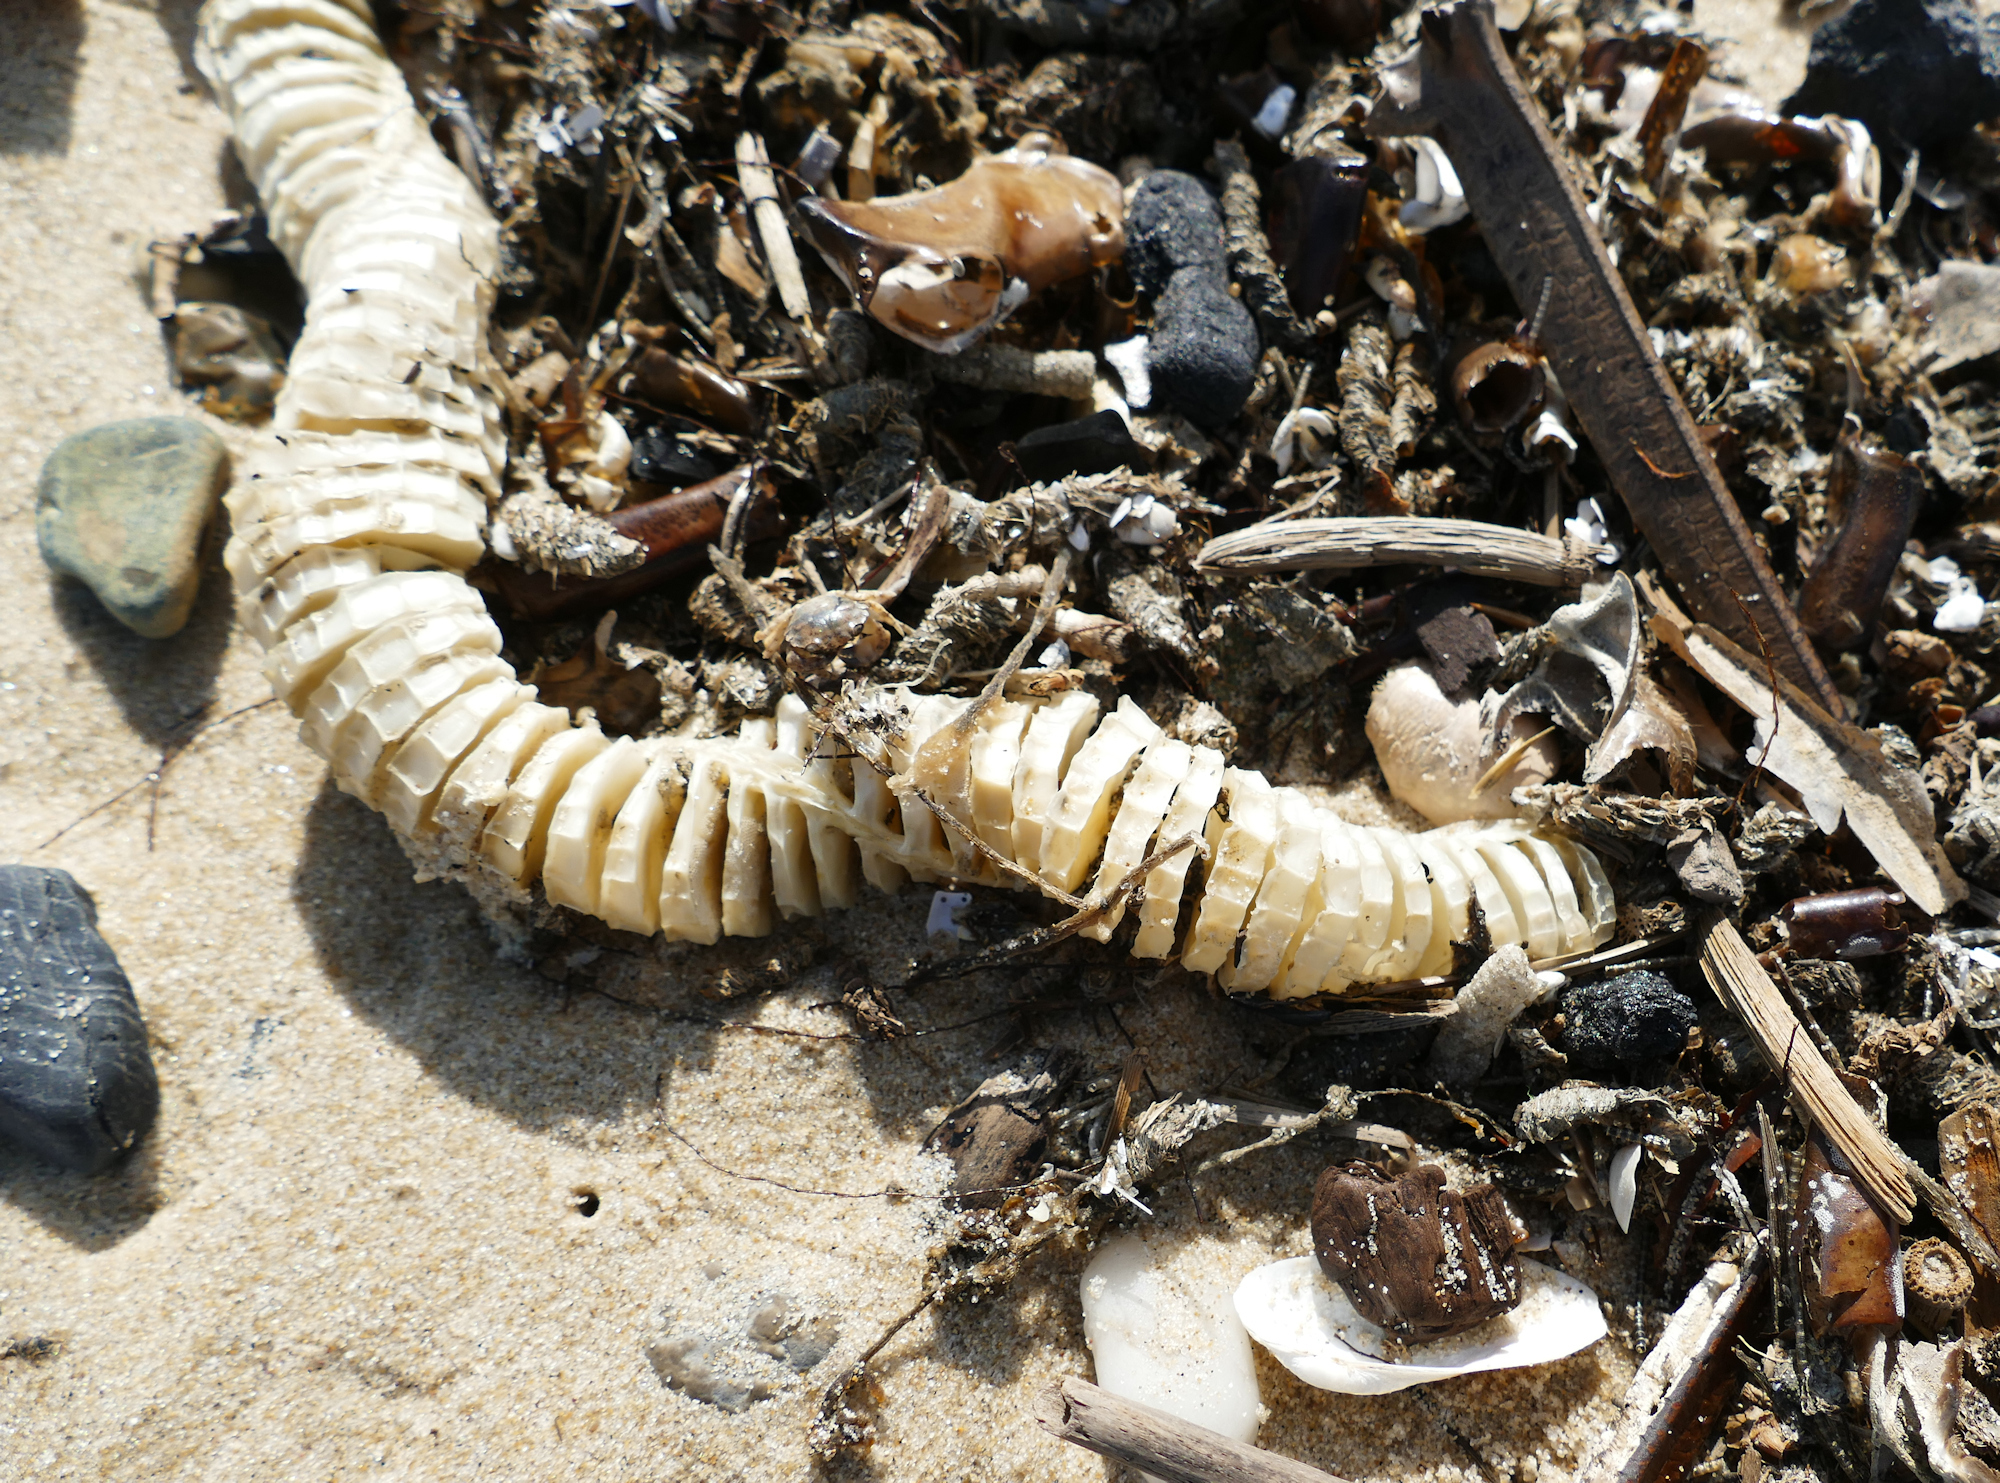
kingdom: Animalia
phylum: Mollusca
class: Gastropoda
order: Neogastropoda
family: Busyconidae
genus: Busycon
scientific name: Busycon carica
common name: Knobbed whelk
